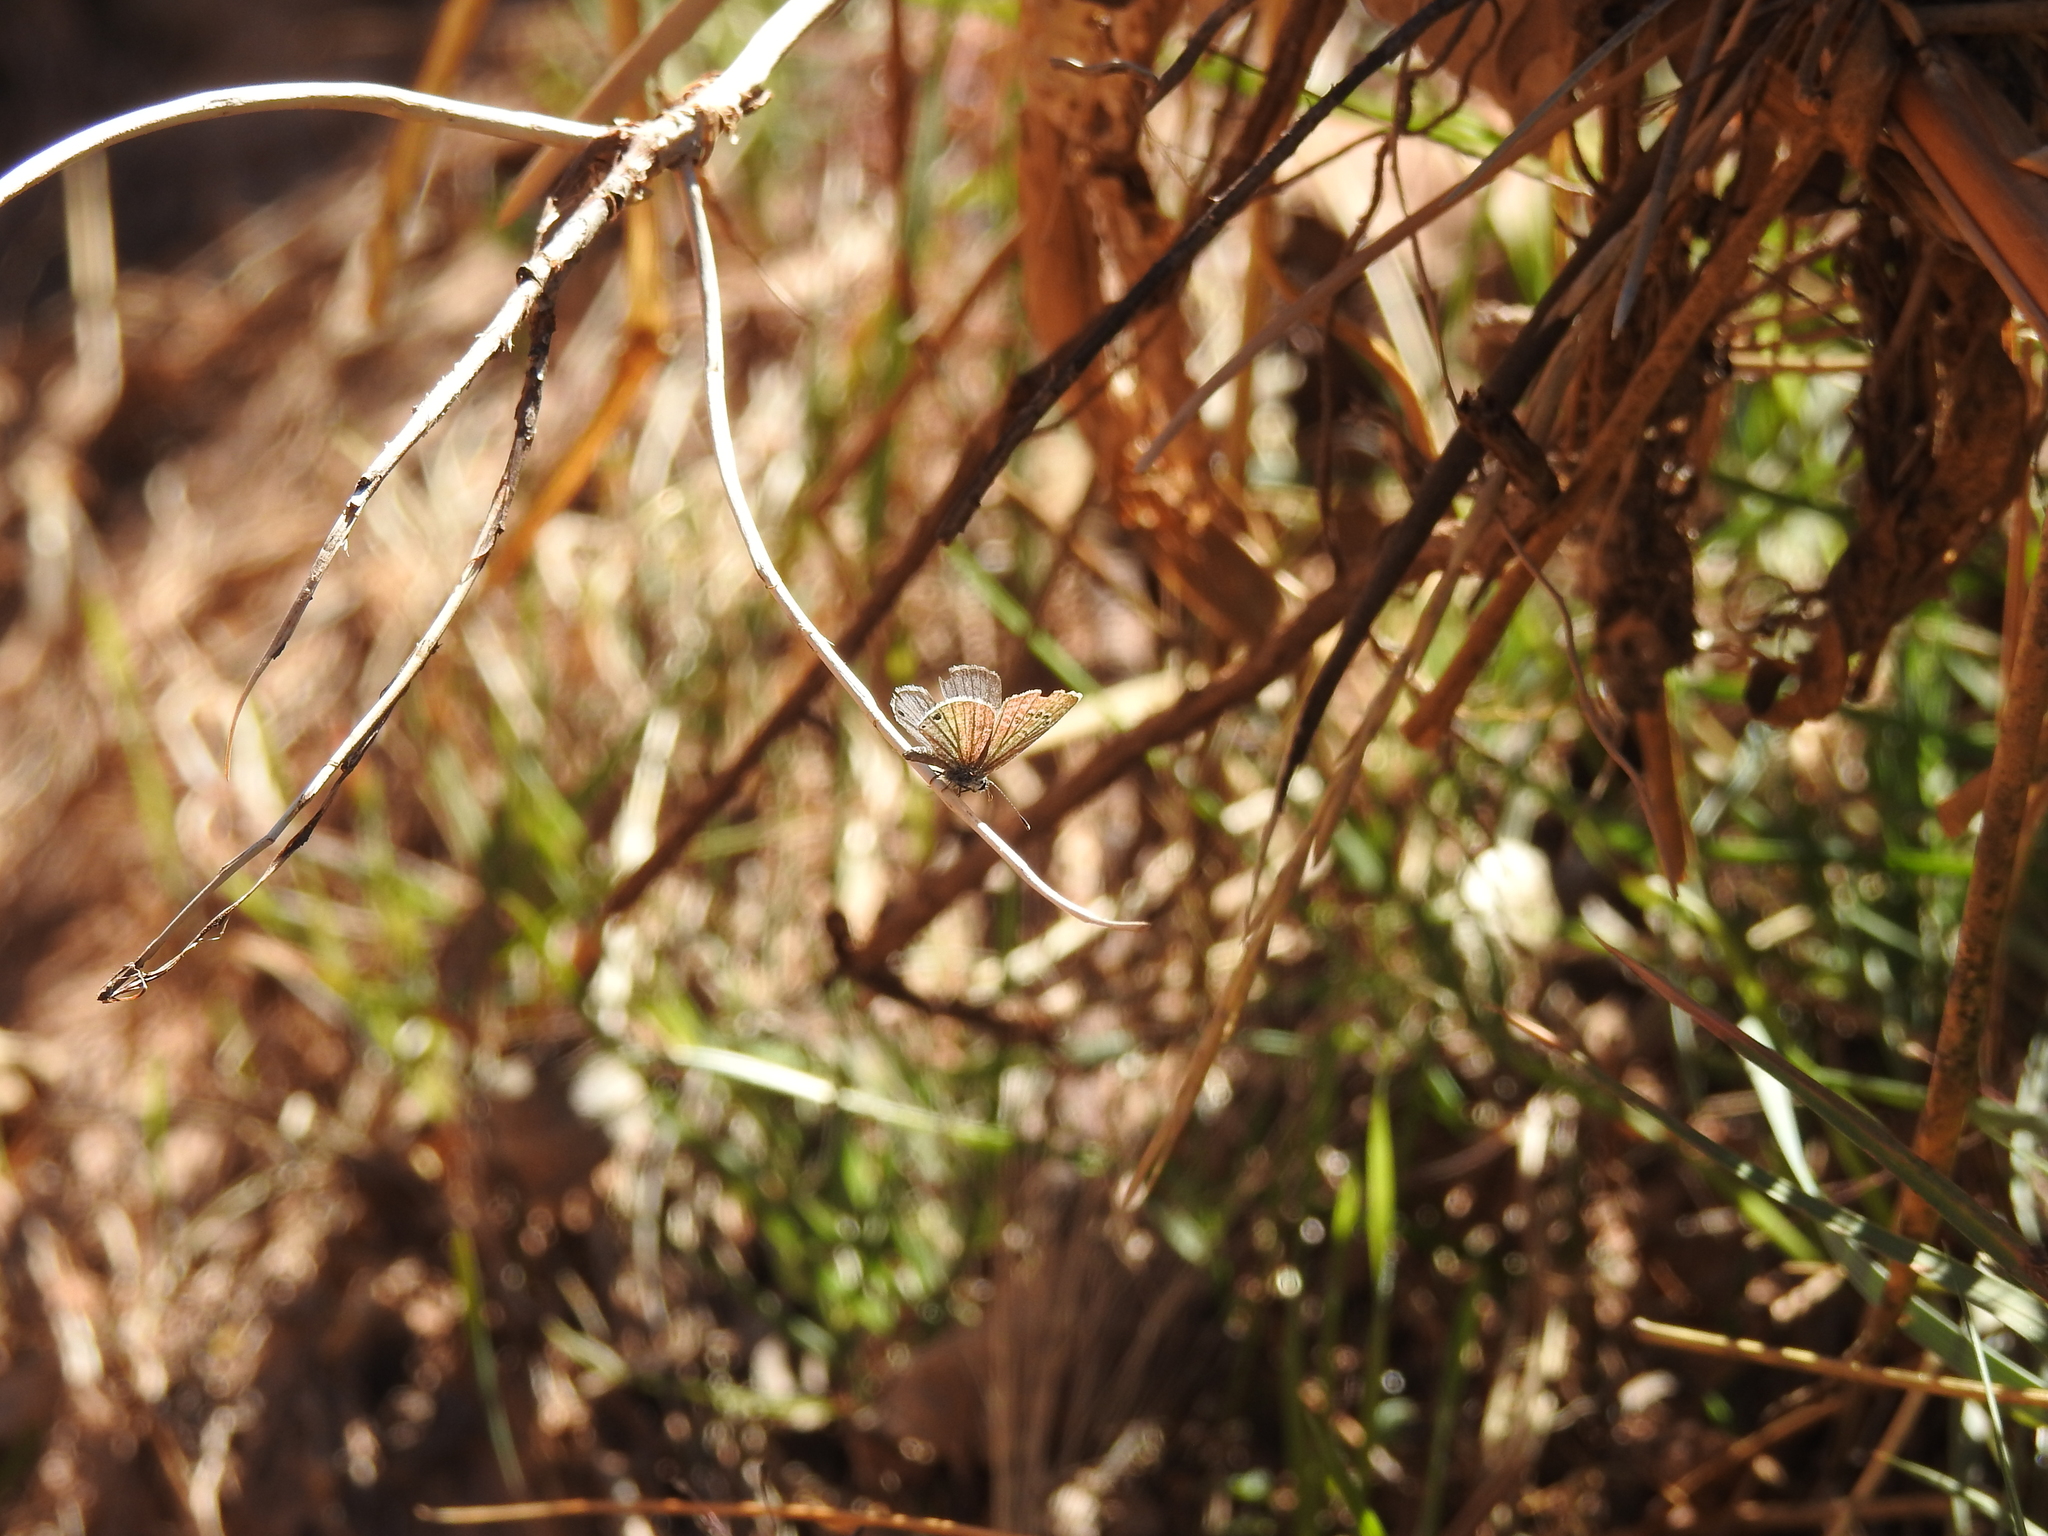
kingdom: Animalia
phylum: Arthropoda
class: Insecta
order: Lepidoptera
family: Lycaenidae
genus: Echinargus
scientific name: Echinargus isola
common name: Reakirt's blue
